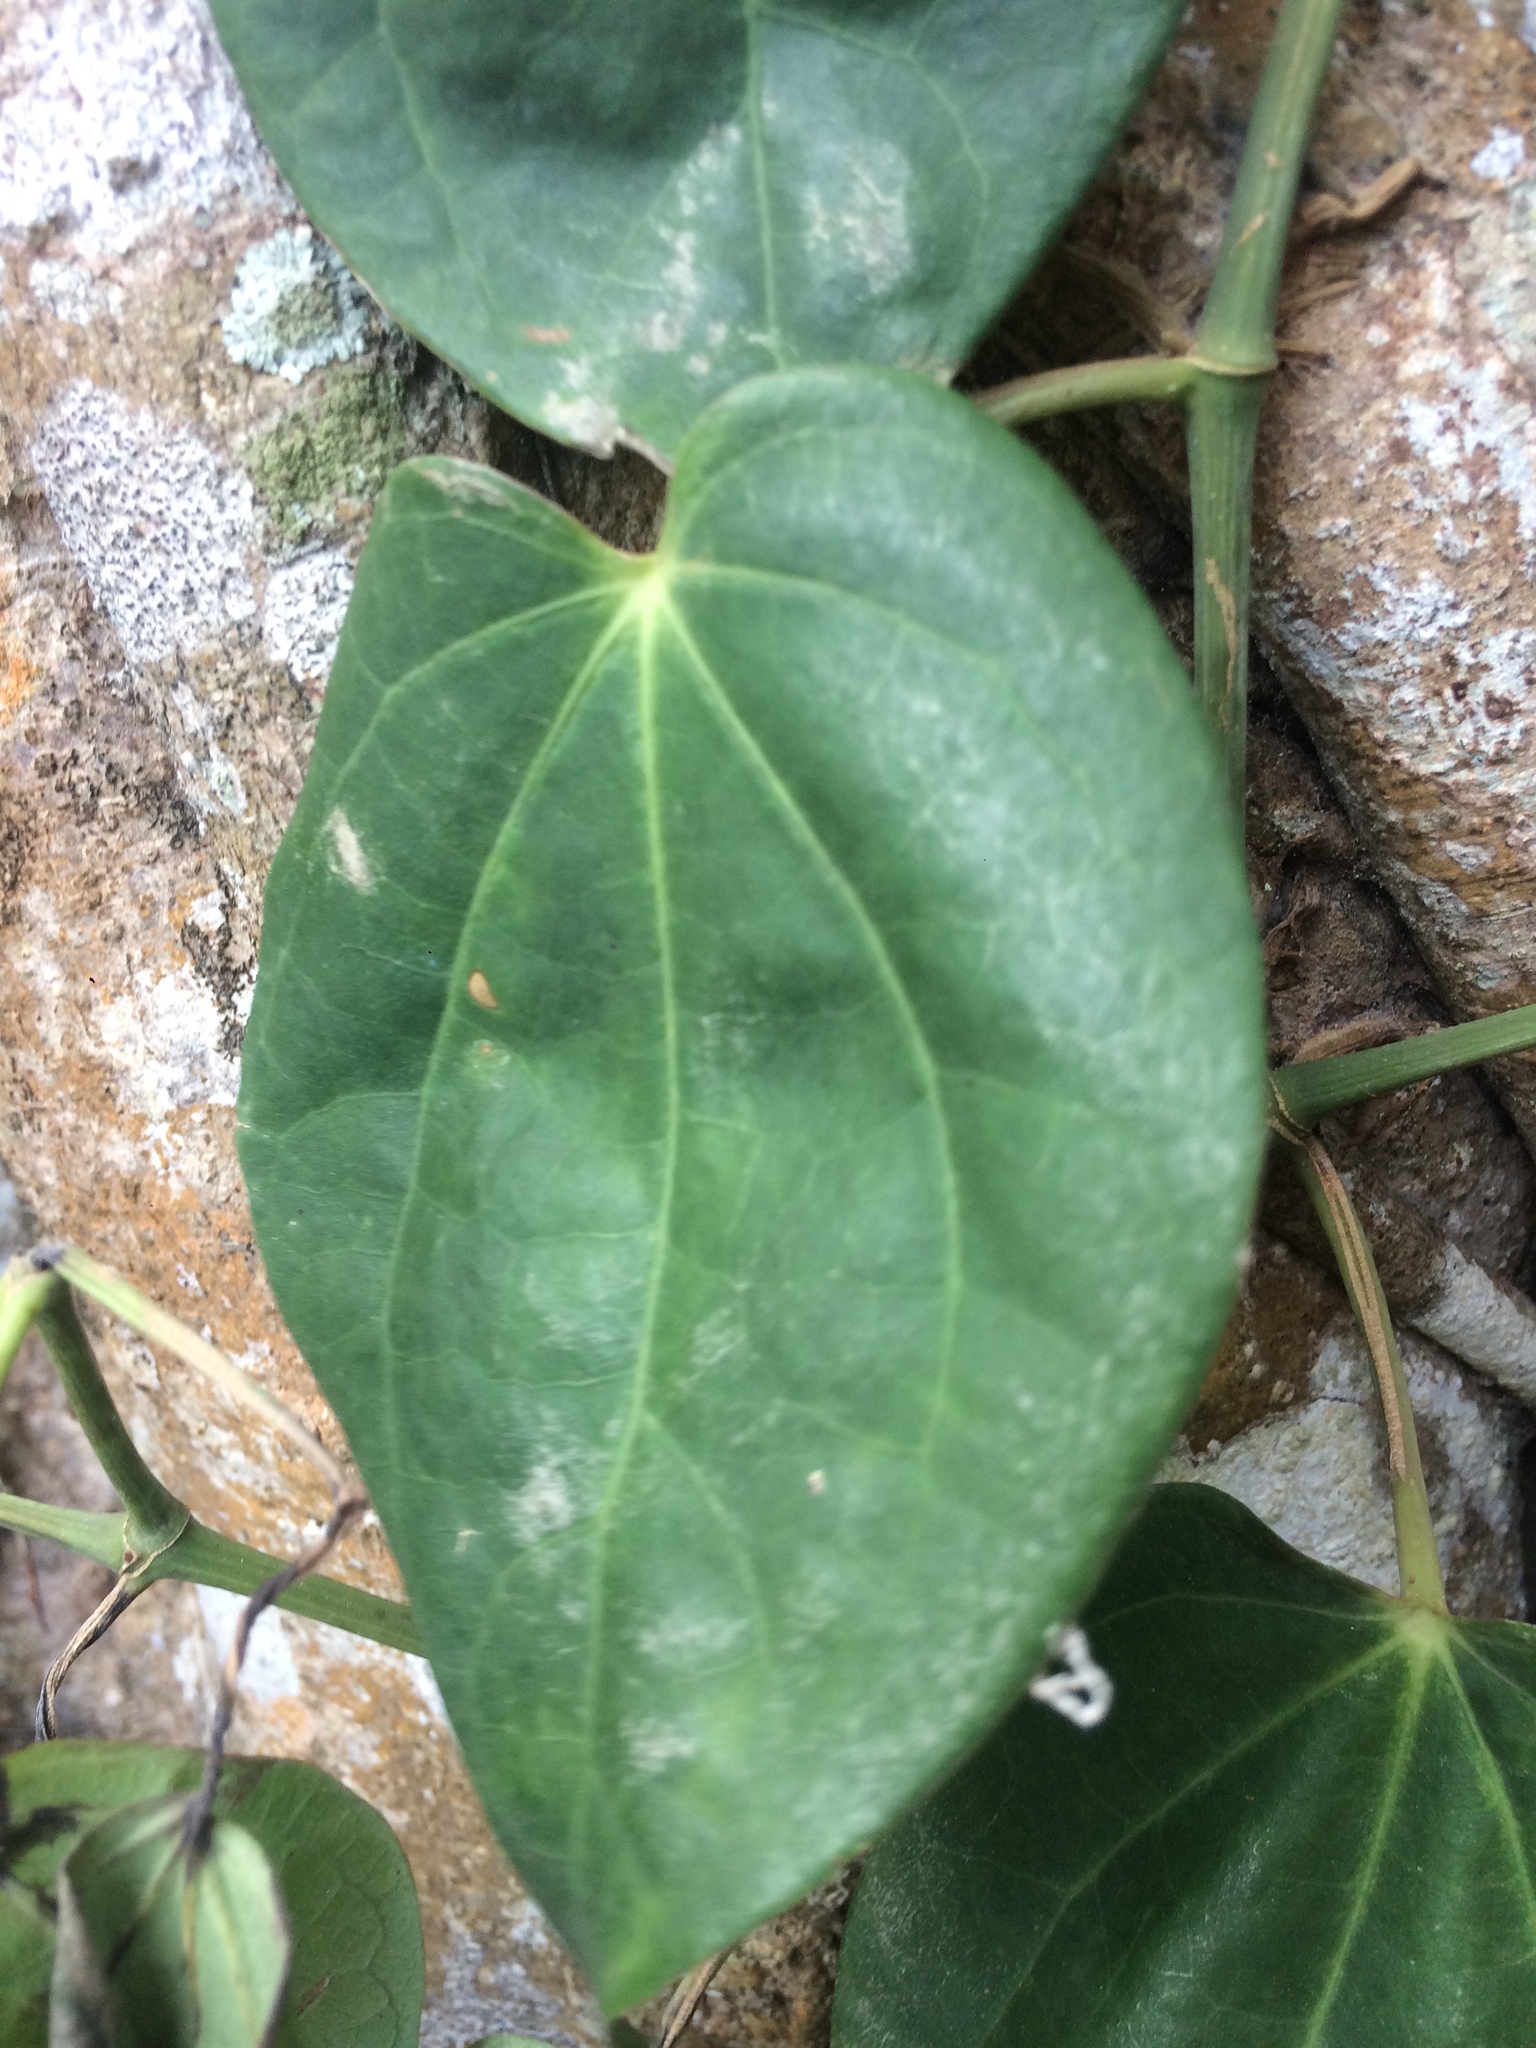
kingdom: Plantae
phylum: Tracheophyta
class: Magnoliopsida
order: Piperales
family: Piperaceae
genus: Piper
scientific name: Piper betle
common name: Betel pepper
